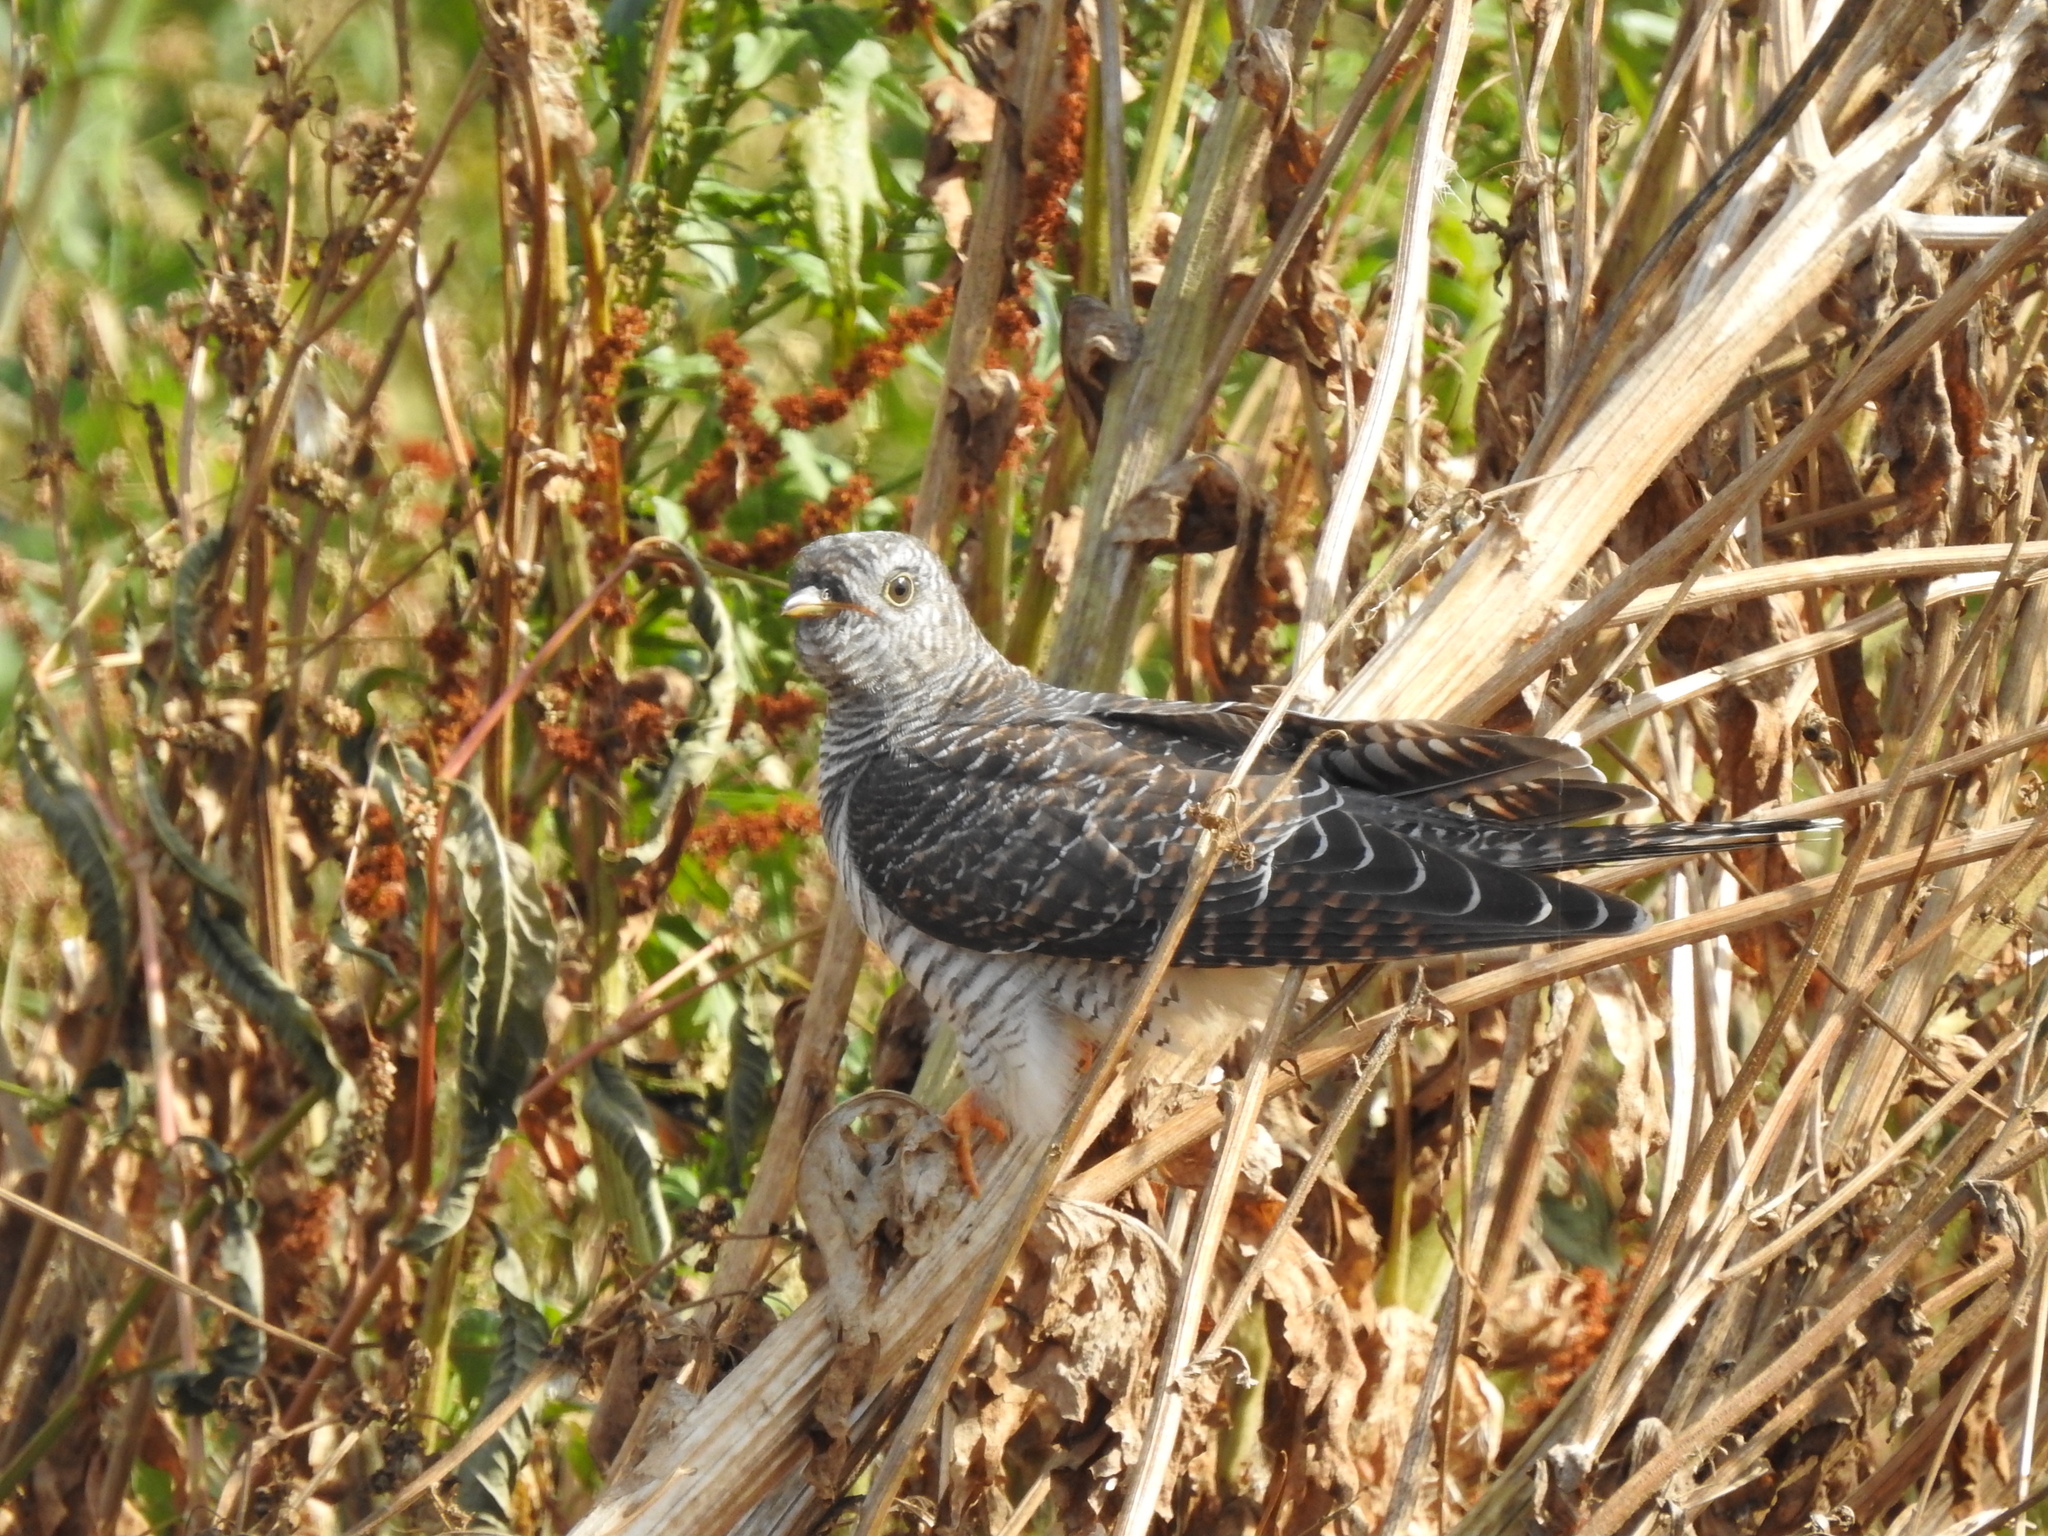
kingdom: Animalia
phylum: Chordata
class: Aves
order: Cuculiformes
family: Cuculidae
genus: Cuculus
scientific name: Cuculus canorus
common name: Common cuckoo
